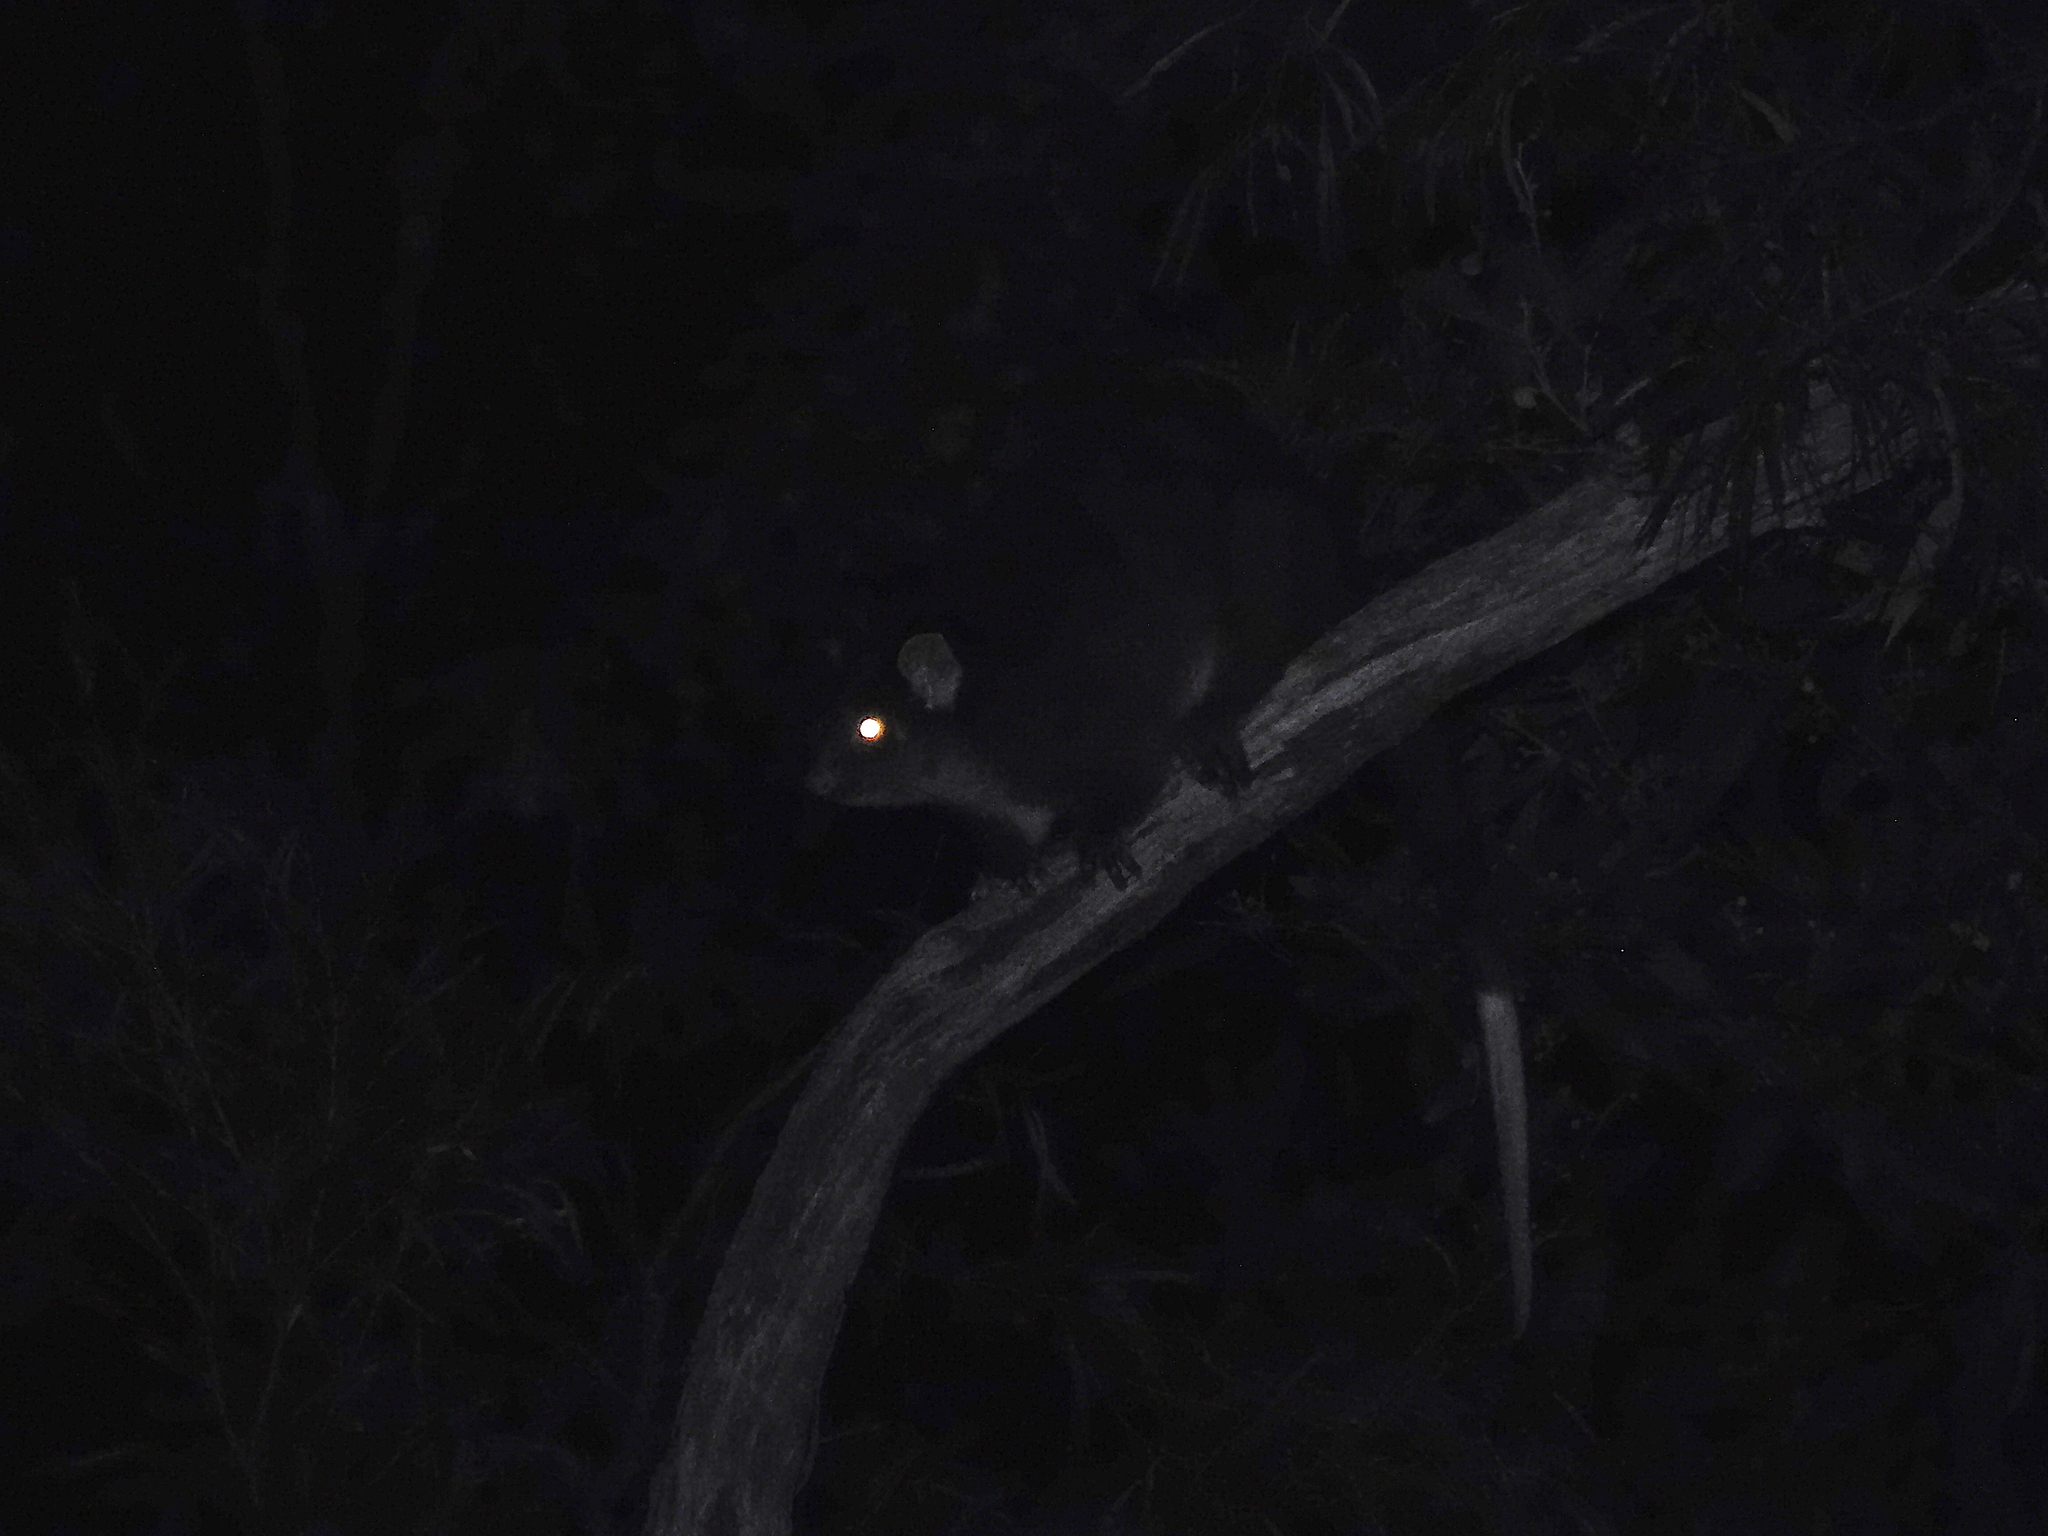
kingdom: Animalia
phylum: Chordata
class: Mammalia
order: Diprotodontia
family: Pseudocheiridae
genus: Pseudocheirus
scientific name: Pseudocheirus peregrinus
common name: Common ringtail possum
